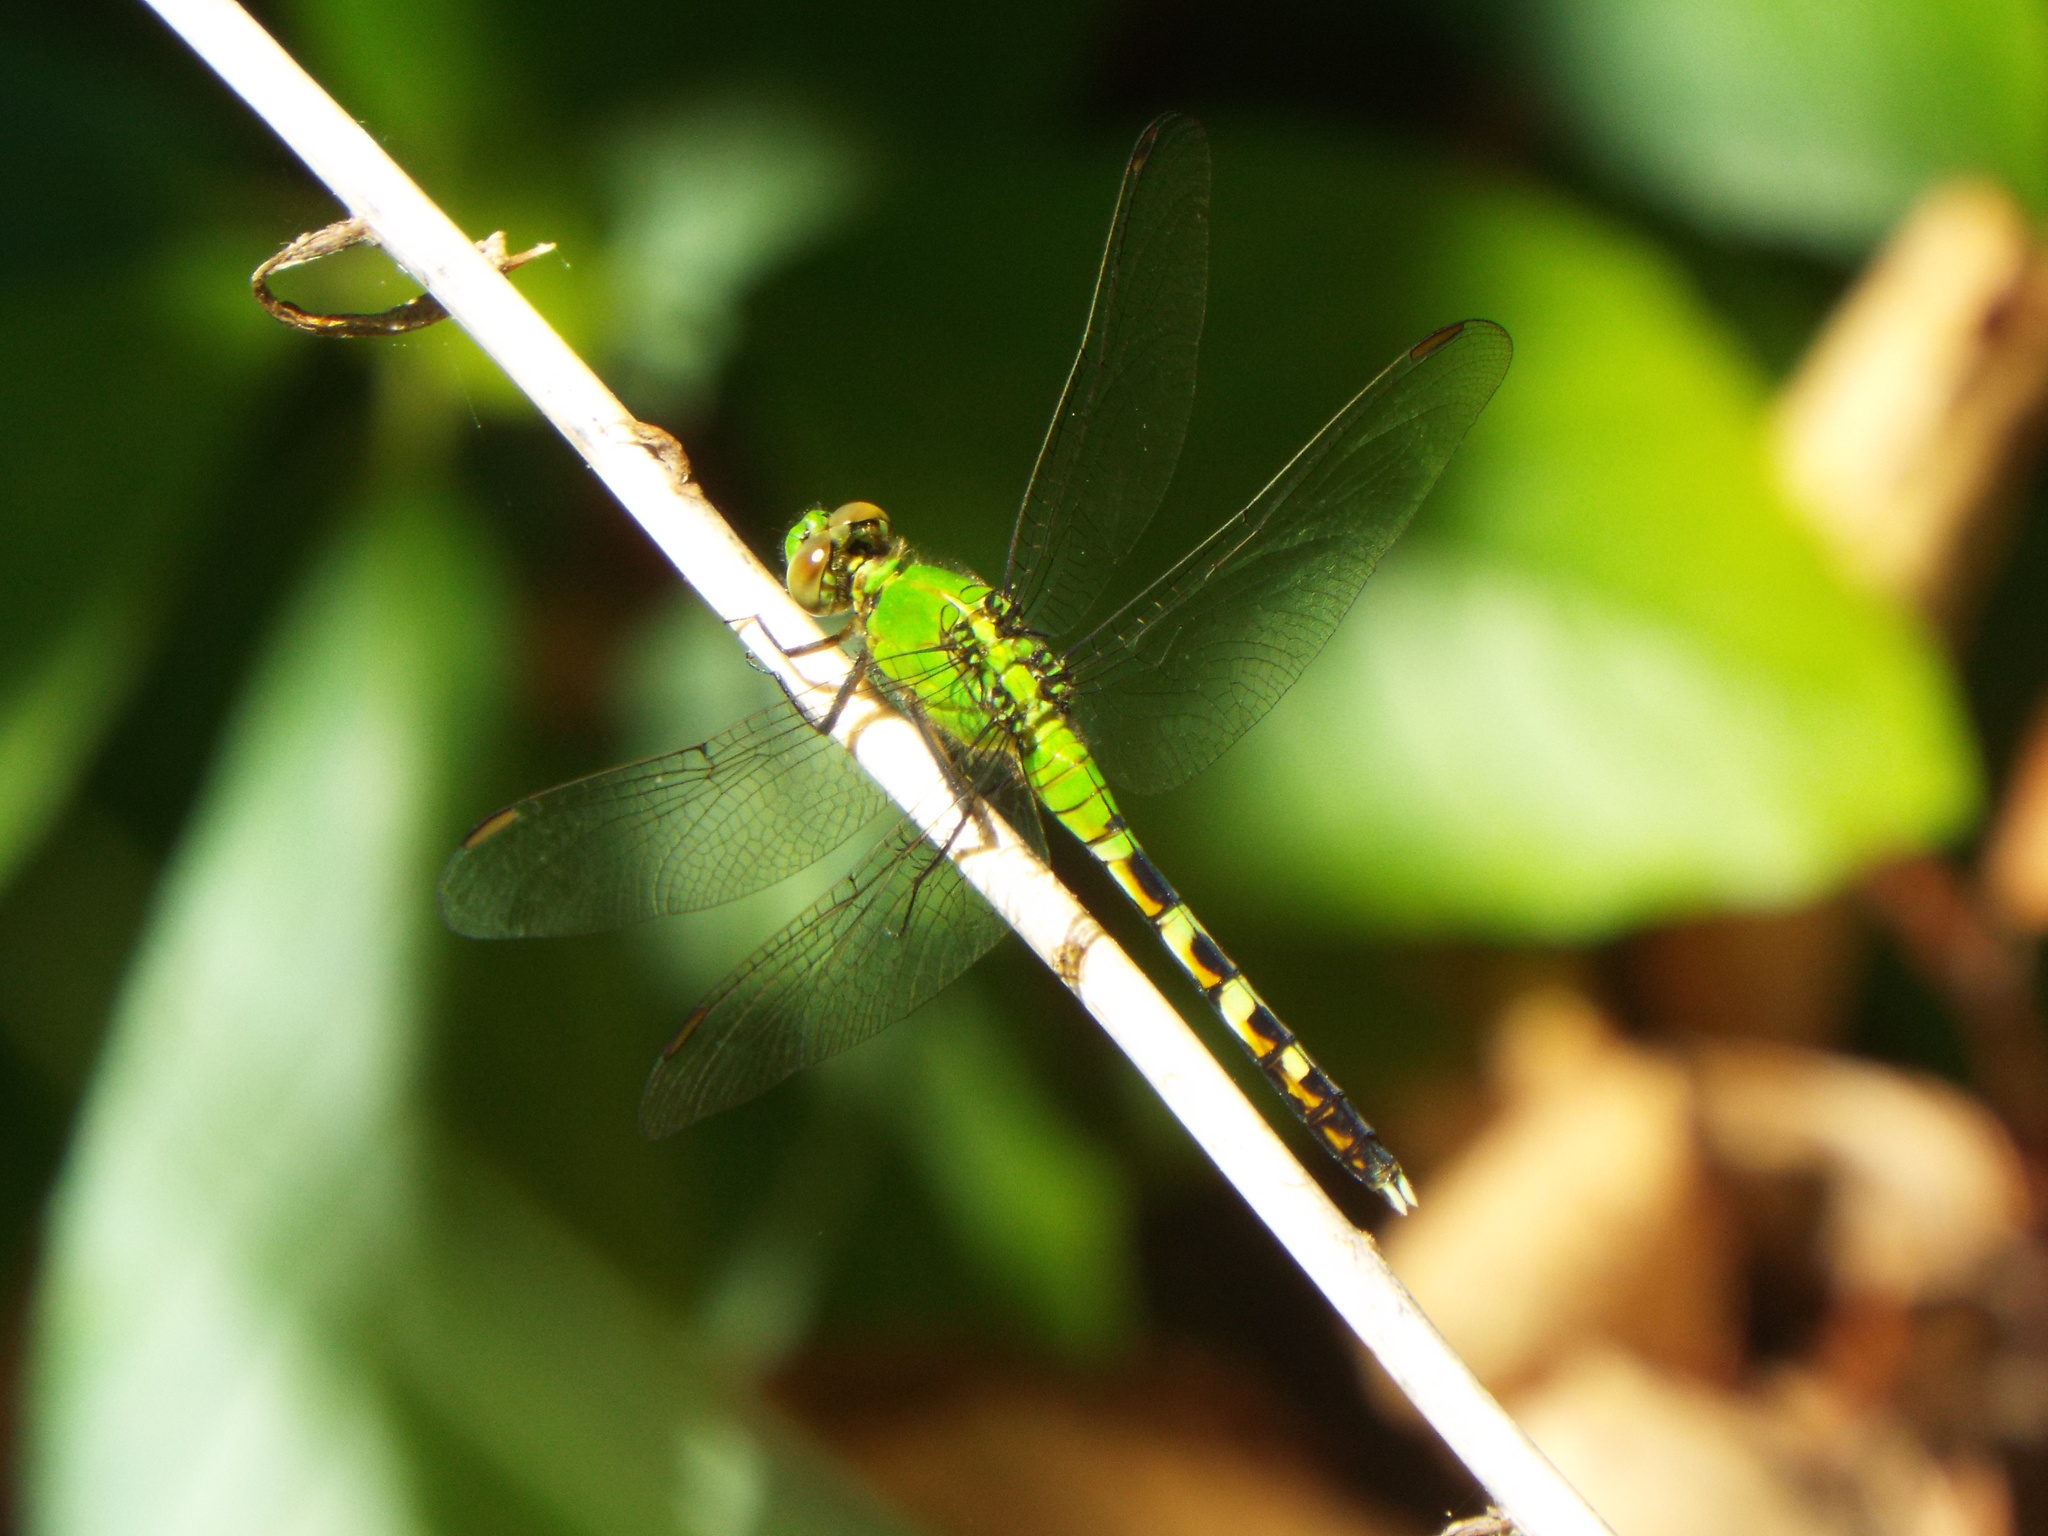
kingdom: Animalia
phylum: Arthropoda
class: Insecta
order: Odonata
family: Libellulidae
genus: Erythemis
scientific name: Erythemis simplicicollis
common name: Eastern pondhawk
